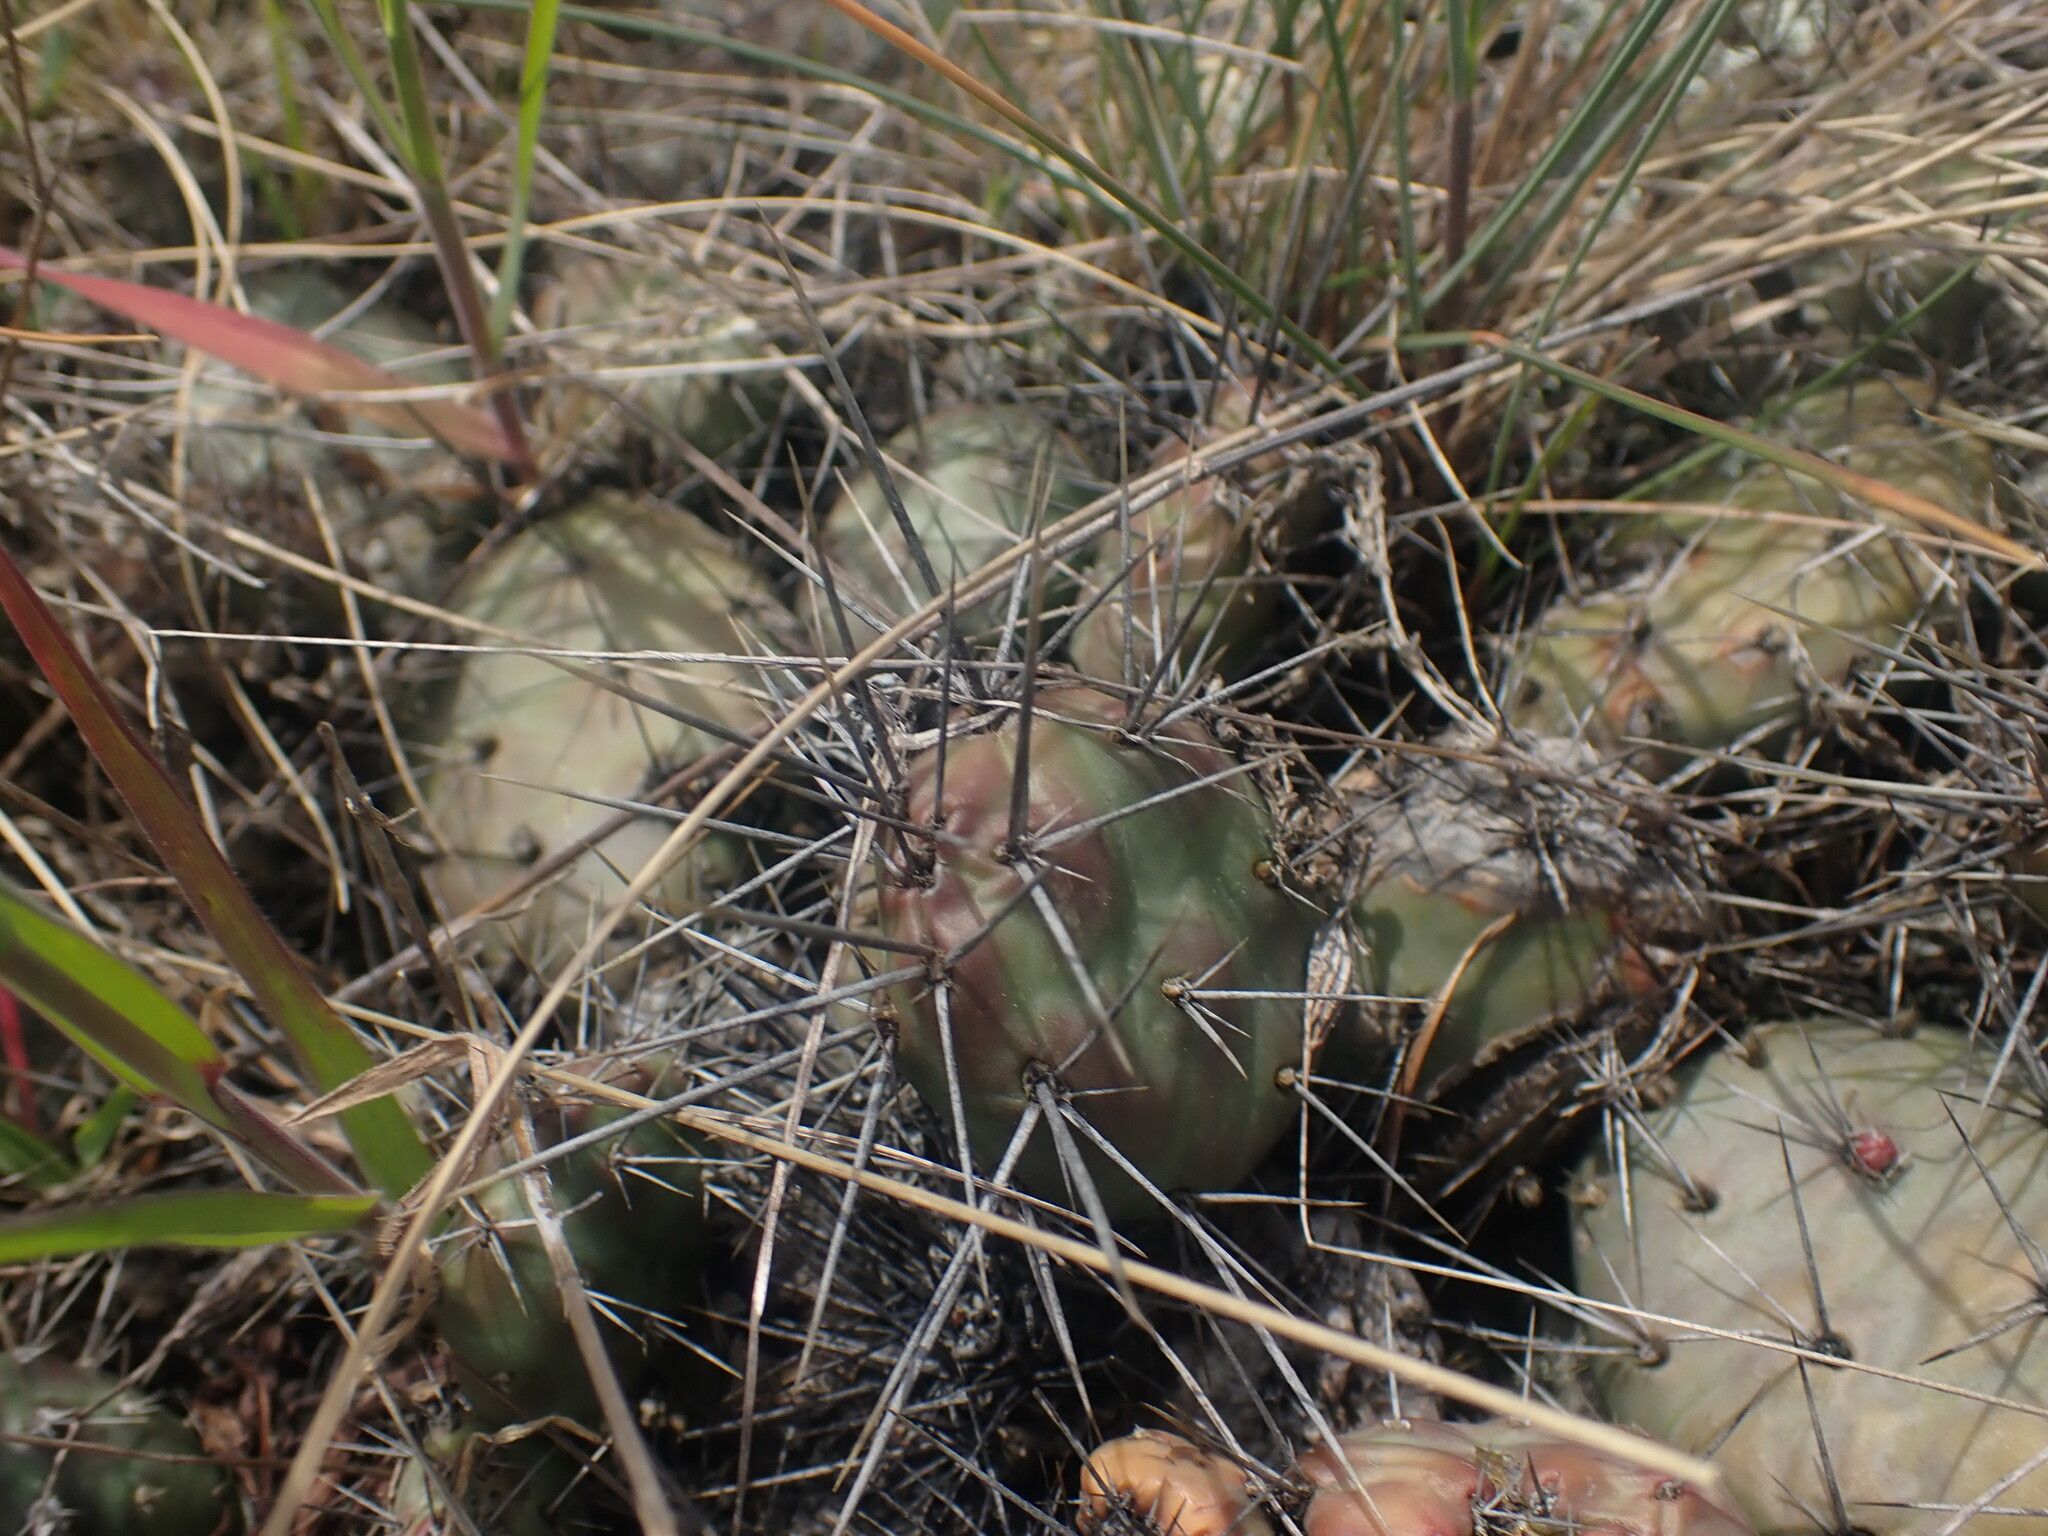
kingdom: Plantae
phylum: Tracheophyta
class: Magnoliopsida
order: Caryophyllales
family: Cactaceae
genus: Opuntia
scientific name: Opuntia fragilis
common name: Brittle cactus
